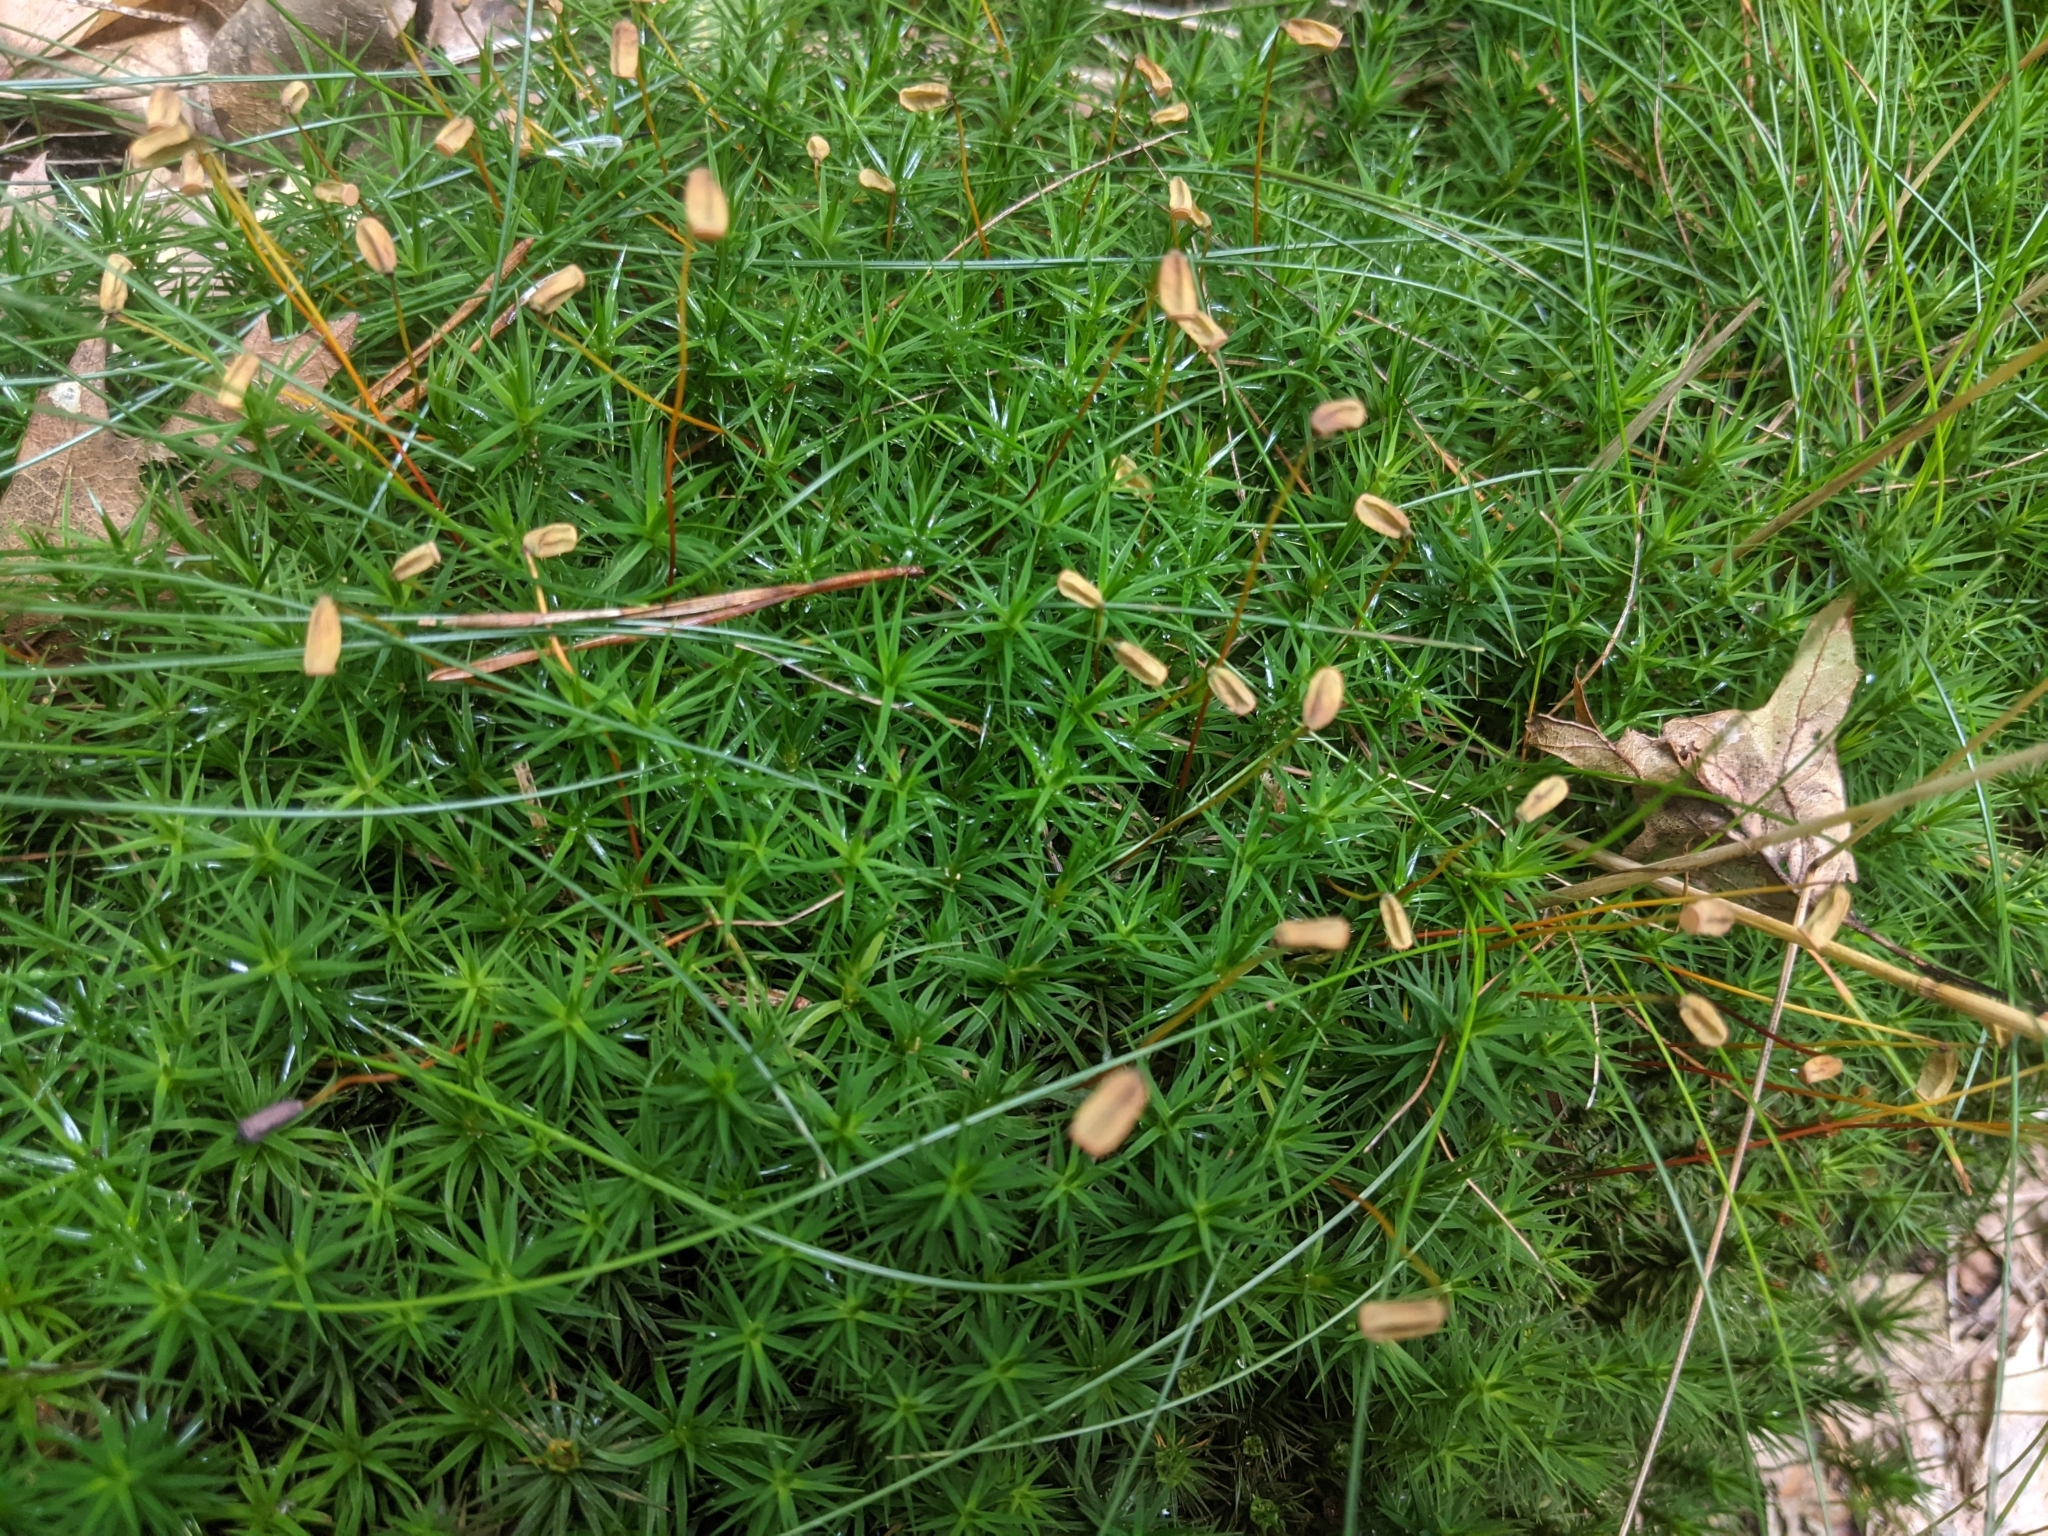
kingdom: Plantae
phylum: Bryophyta
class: Polytrichopsida
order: Polytrichales
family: Polytrichaceae
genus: Polytrichum
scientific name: Polytrichum formosum
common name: Bank haircap moss
